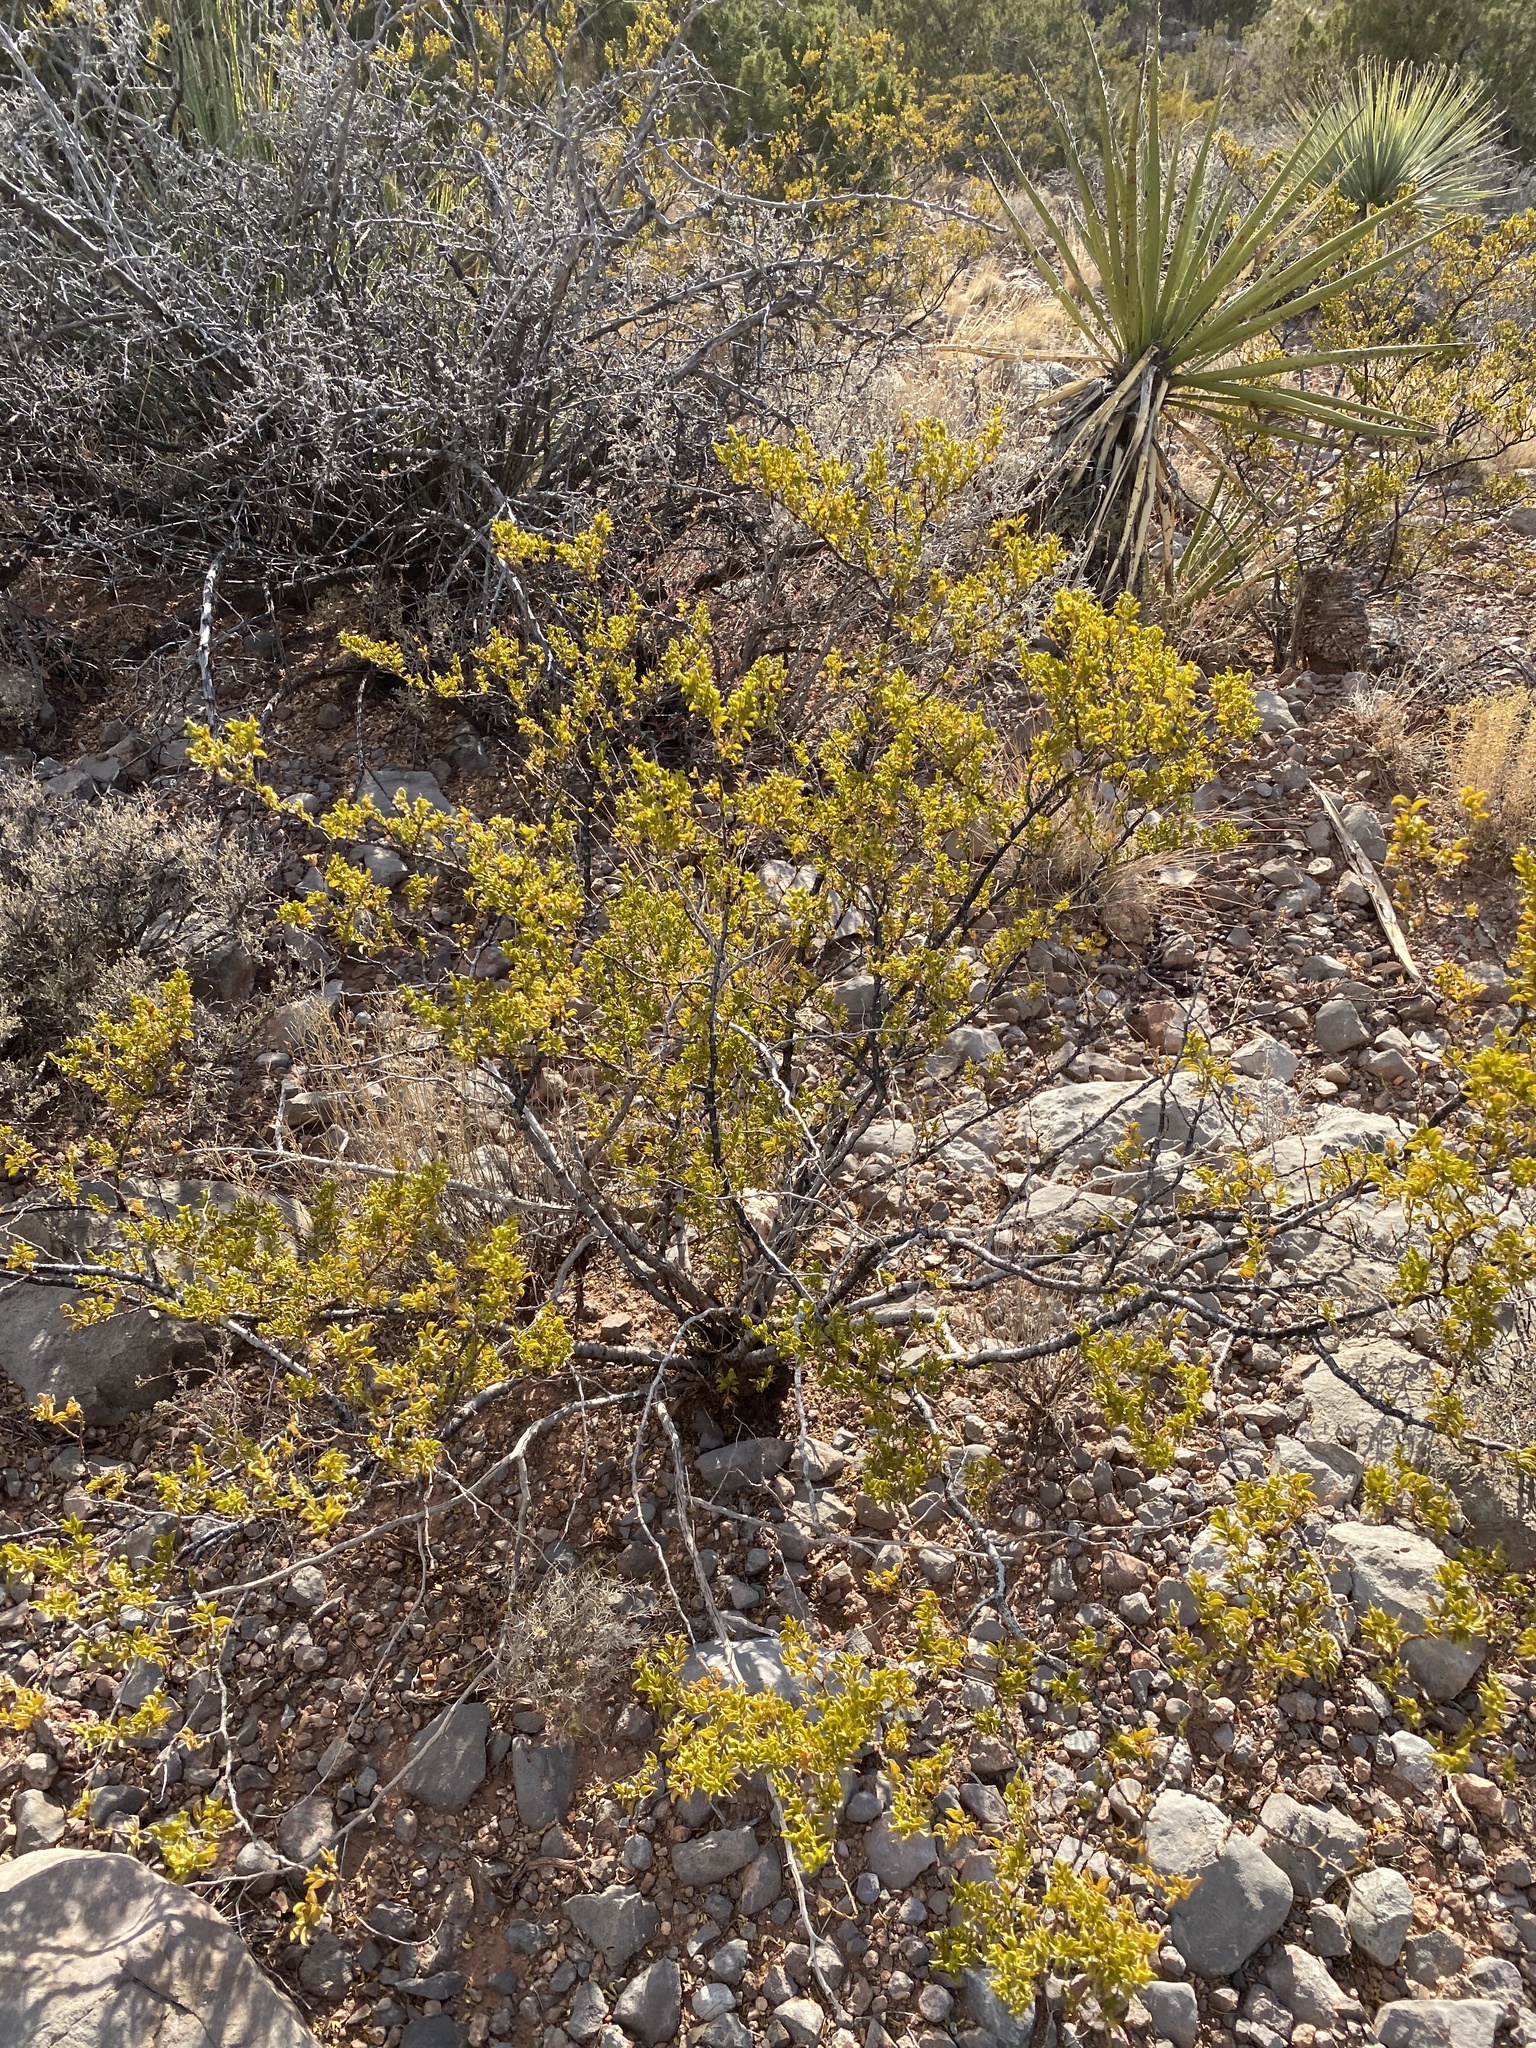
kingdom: Plantae
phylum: Tracheophyta
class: Magnoliopsida
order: Zygophyllales
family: Zygophyllaceae
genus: Larrea
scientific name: Larrea tridentata
